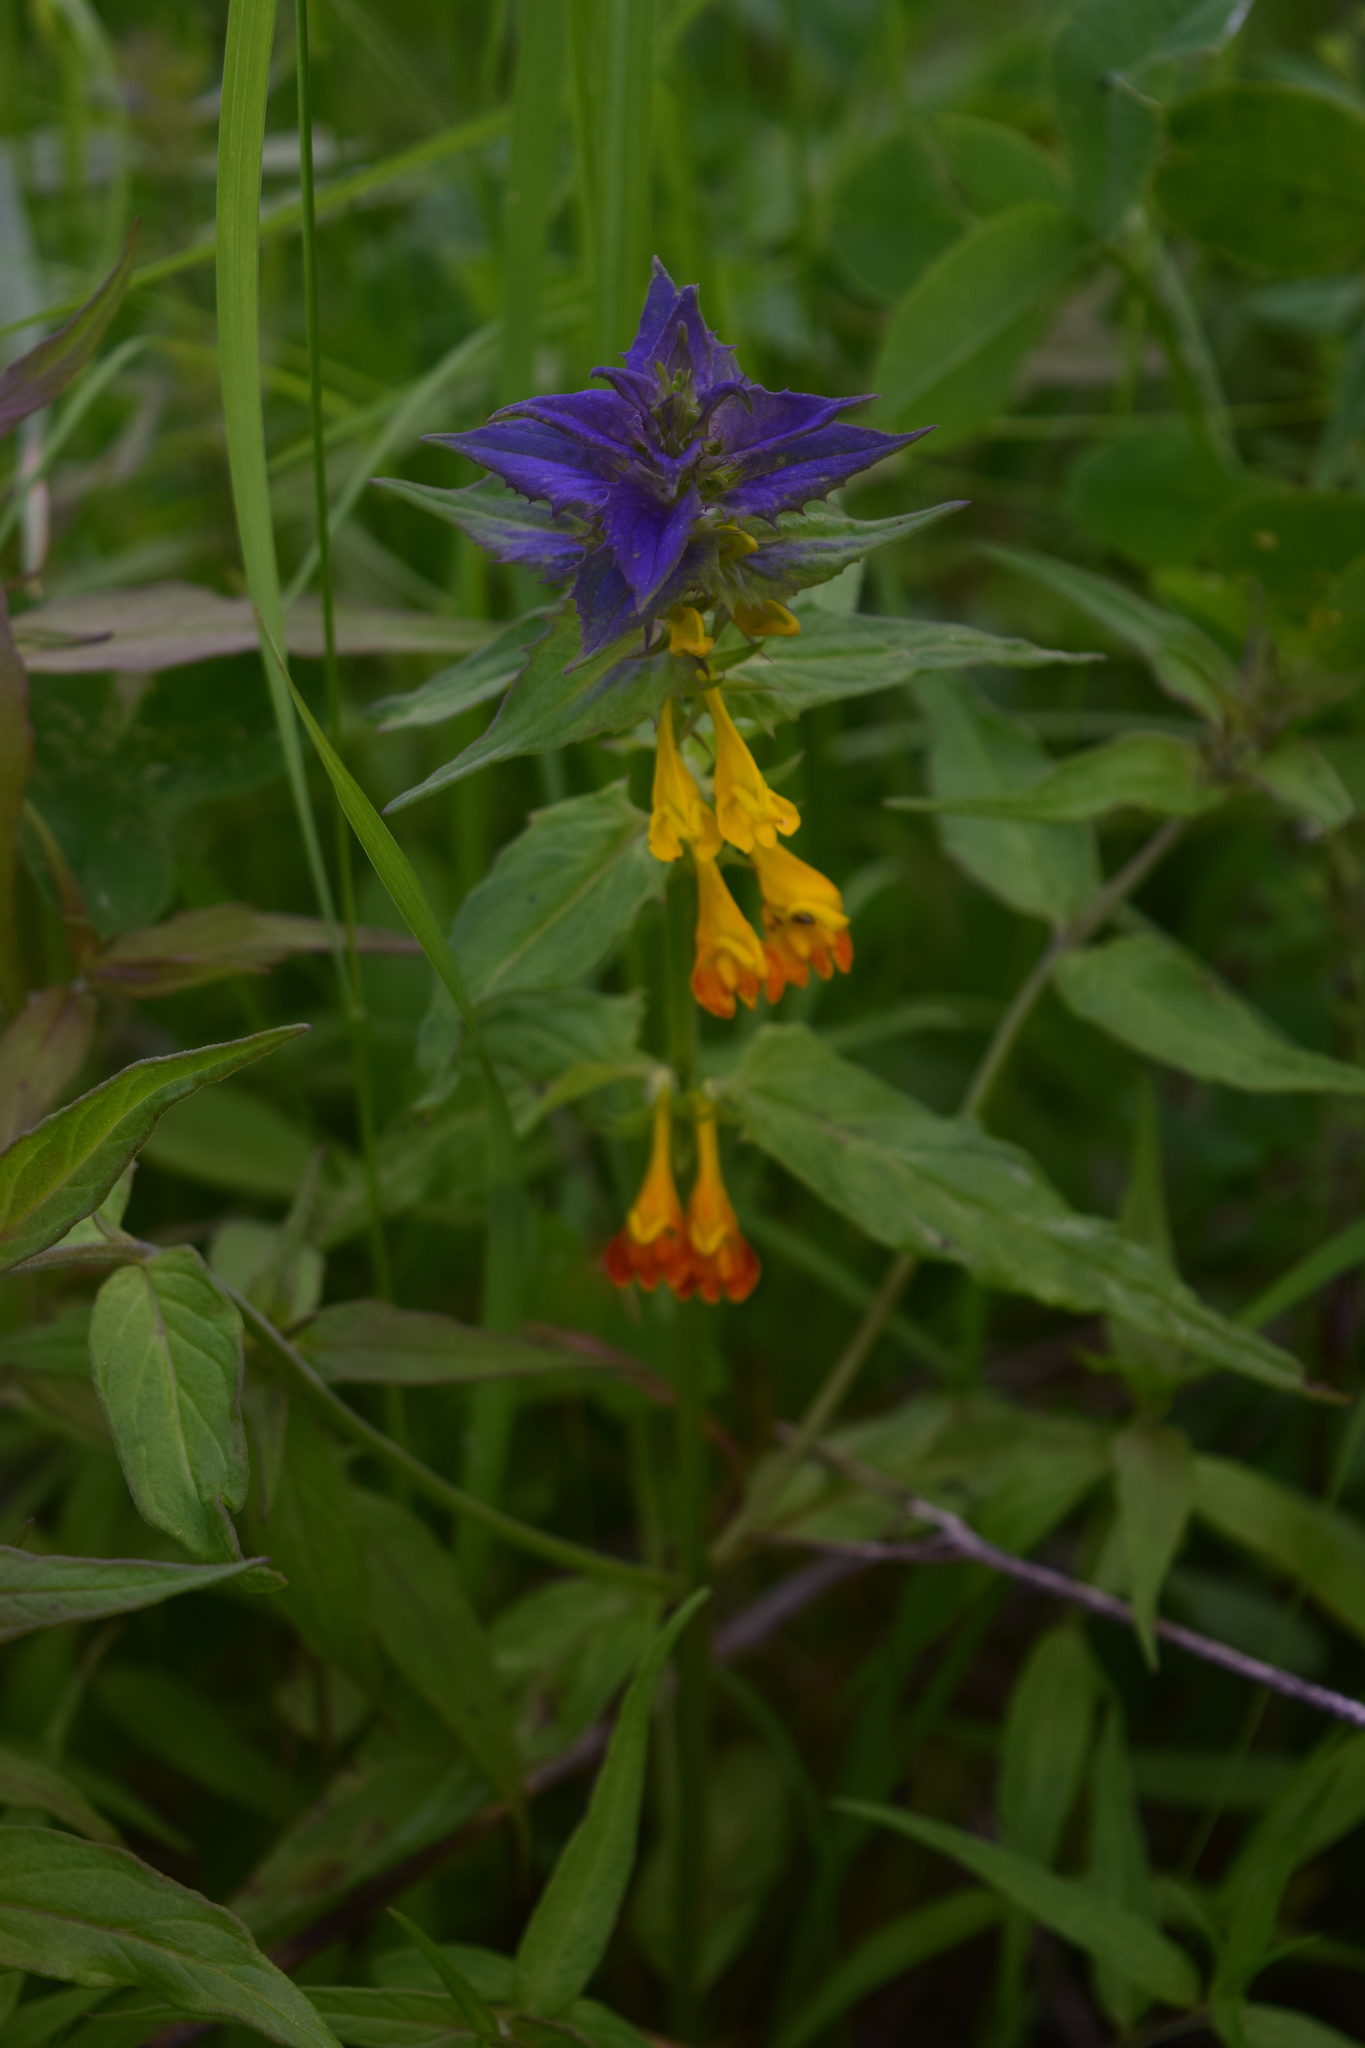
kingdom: Plantae
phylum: Tracheophyta
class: Magnoliopsida
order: Lamiales
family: Orobanchaceae
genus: Melampyrum
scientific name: Melampyrum nemorosum
